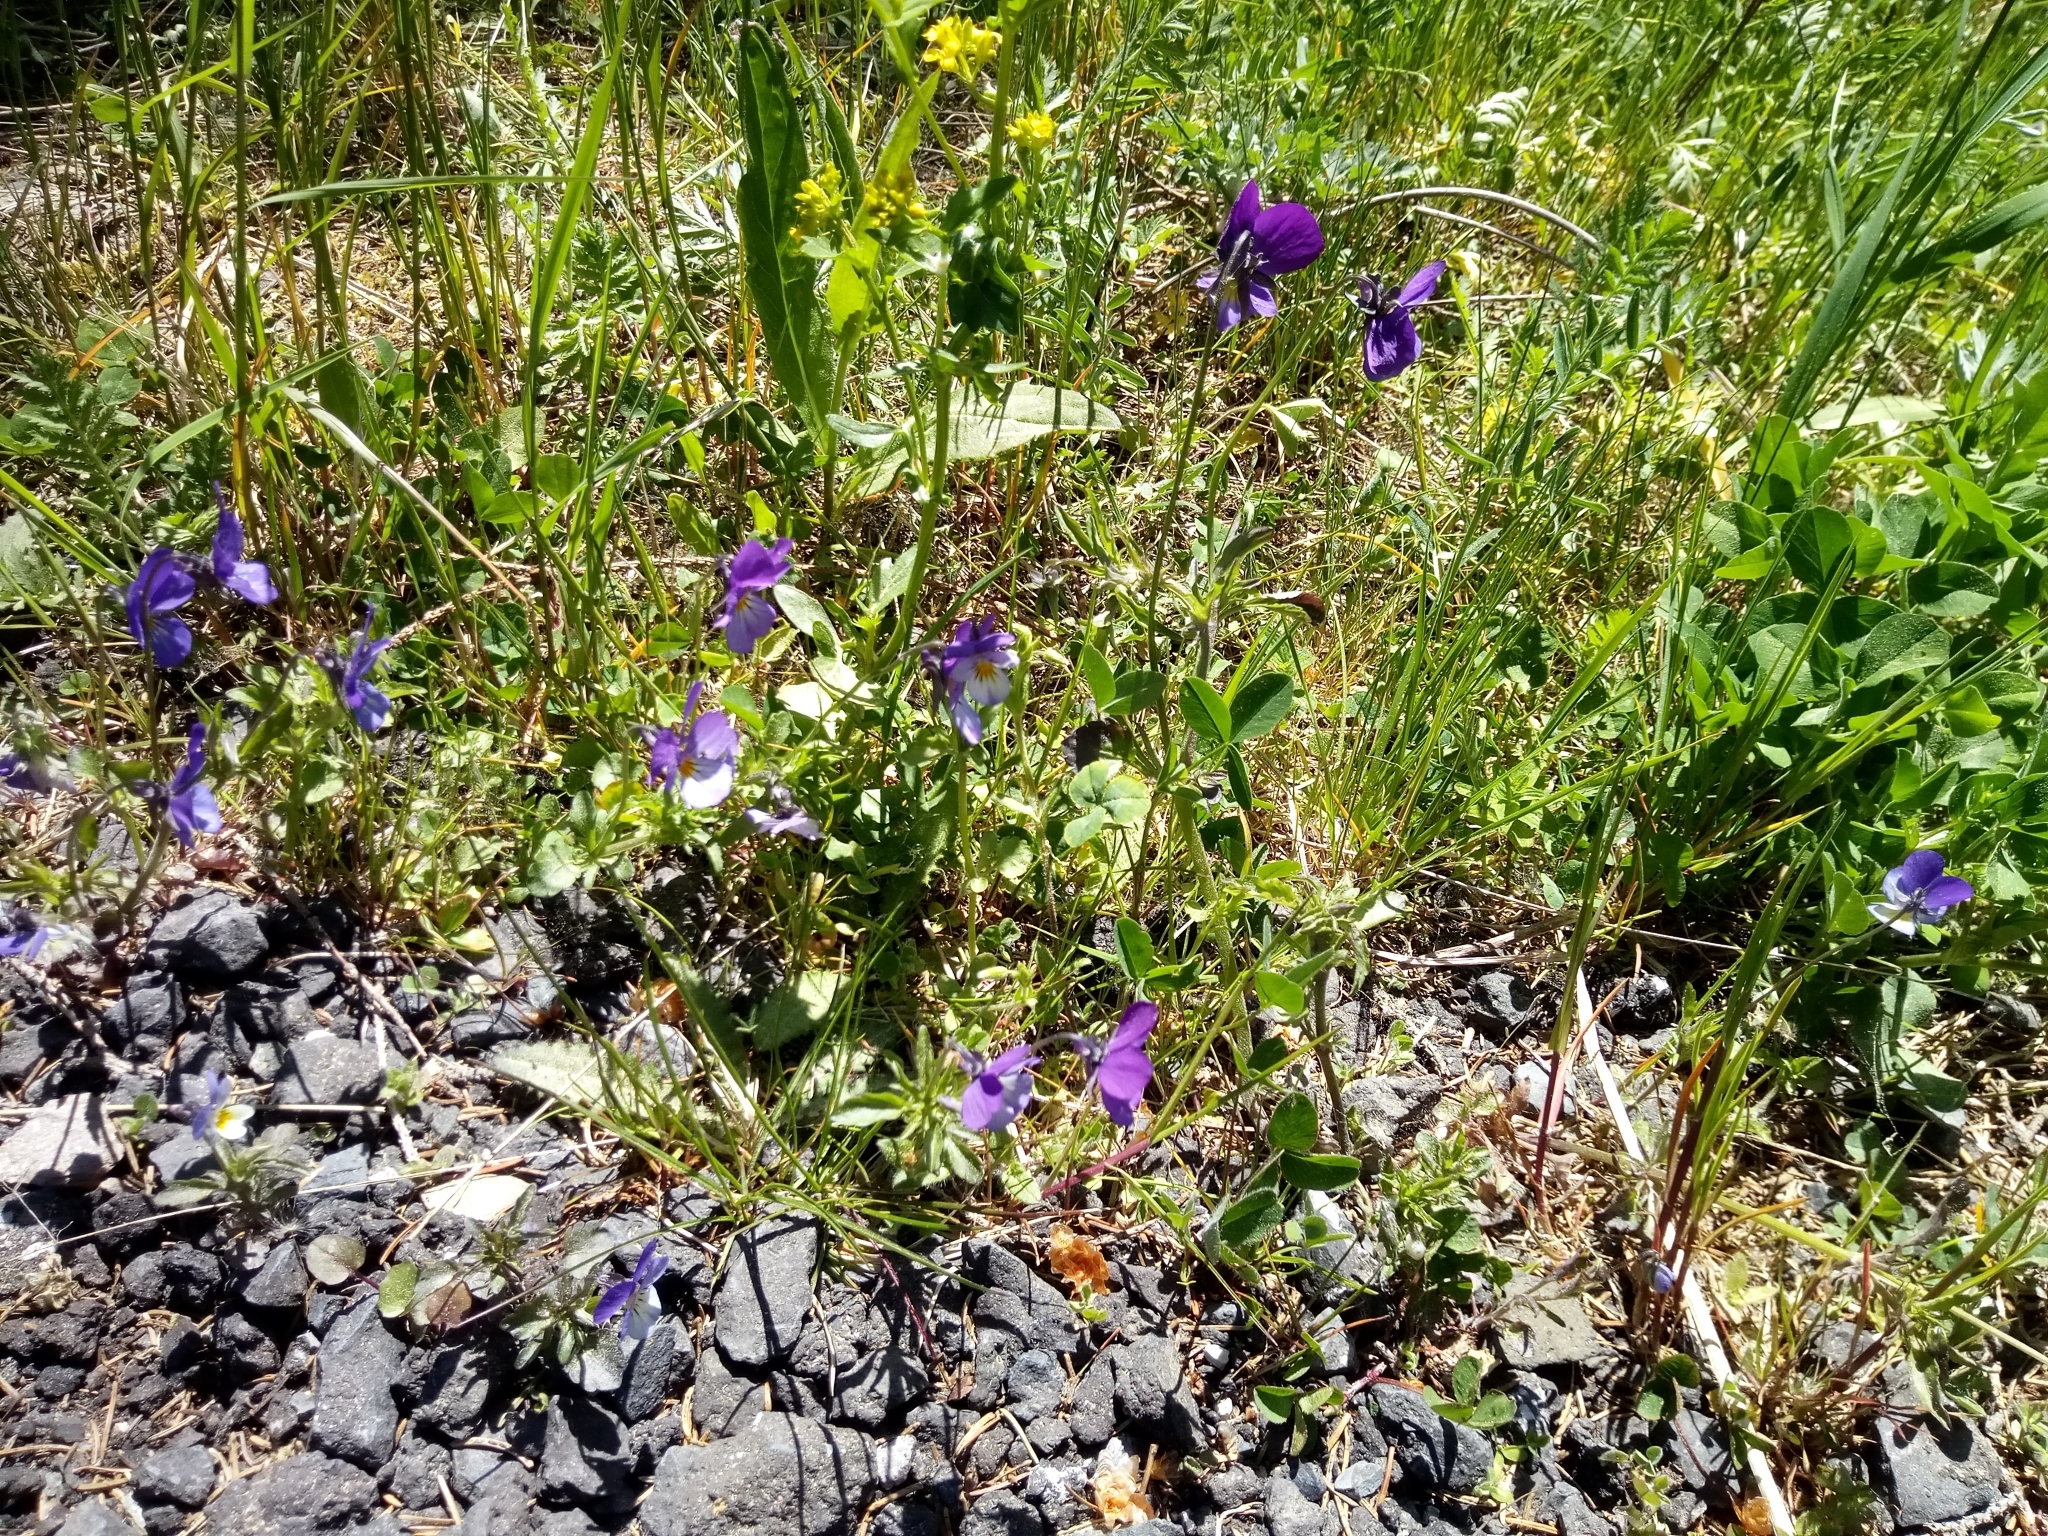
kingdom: Plantae
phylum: Tracheophyta
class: Magnoliopsida
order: Malpighiales
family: Violaceae
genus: Viola
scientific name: Viola tricolor
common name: Pansy
